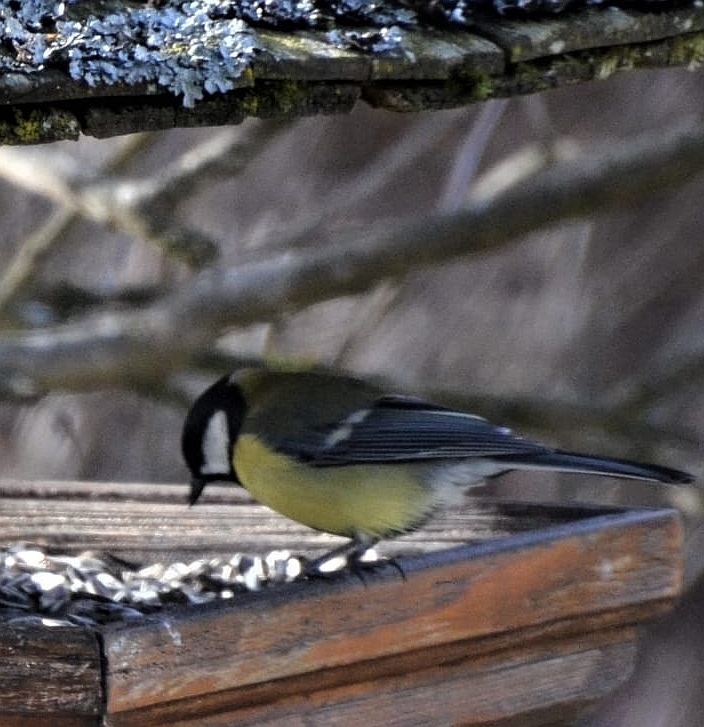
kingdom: Animalia
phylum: Chordata
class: Aves
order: Passeriformes
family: Paridae
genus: Parus
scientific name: Parus major
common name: Great tit
